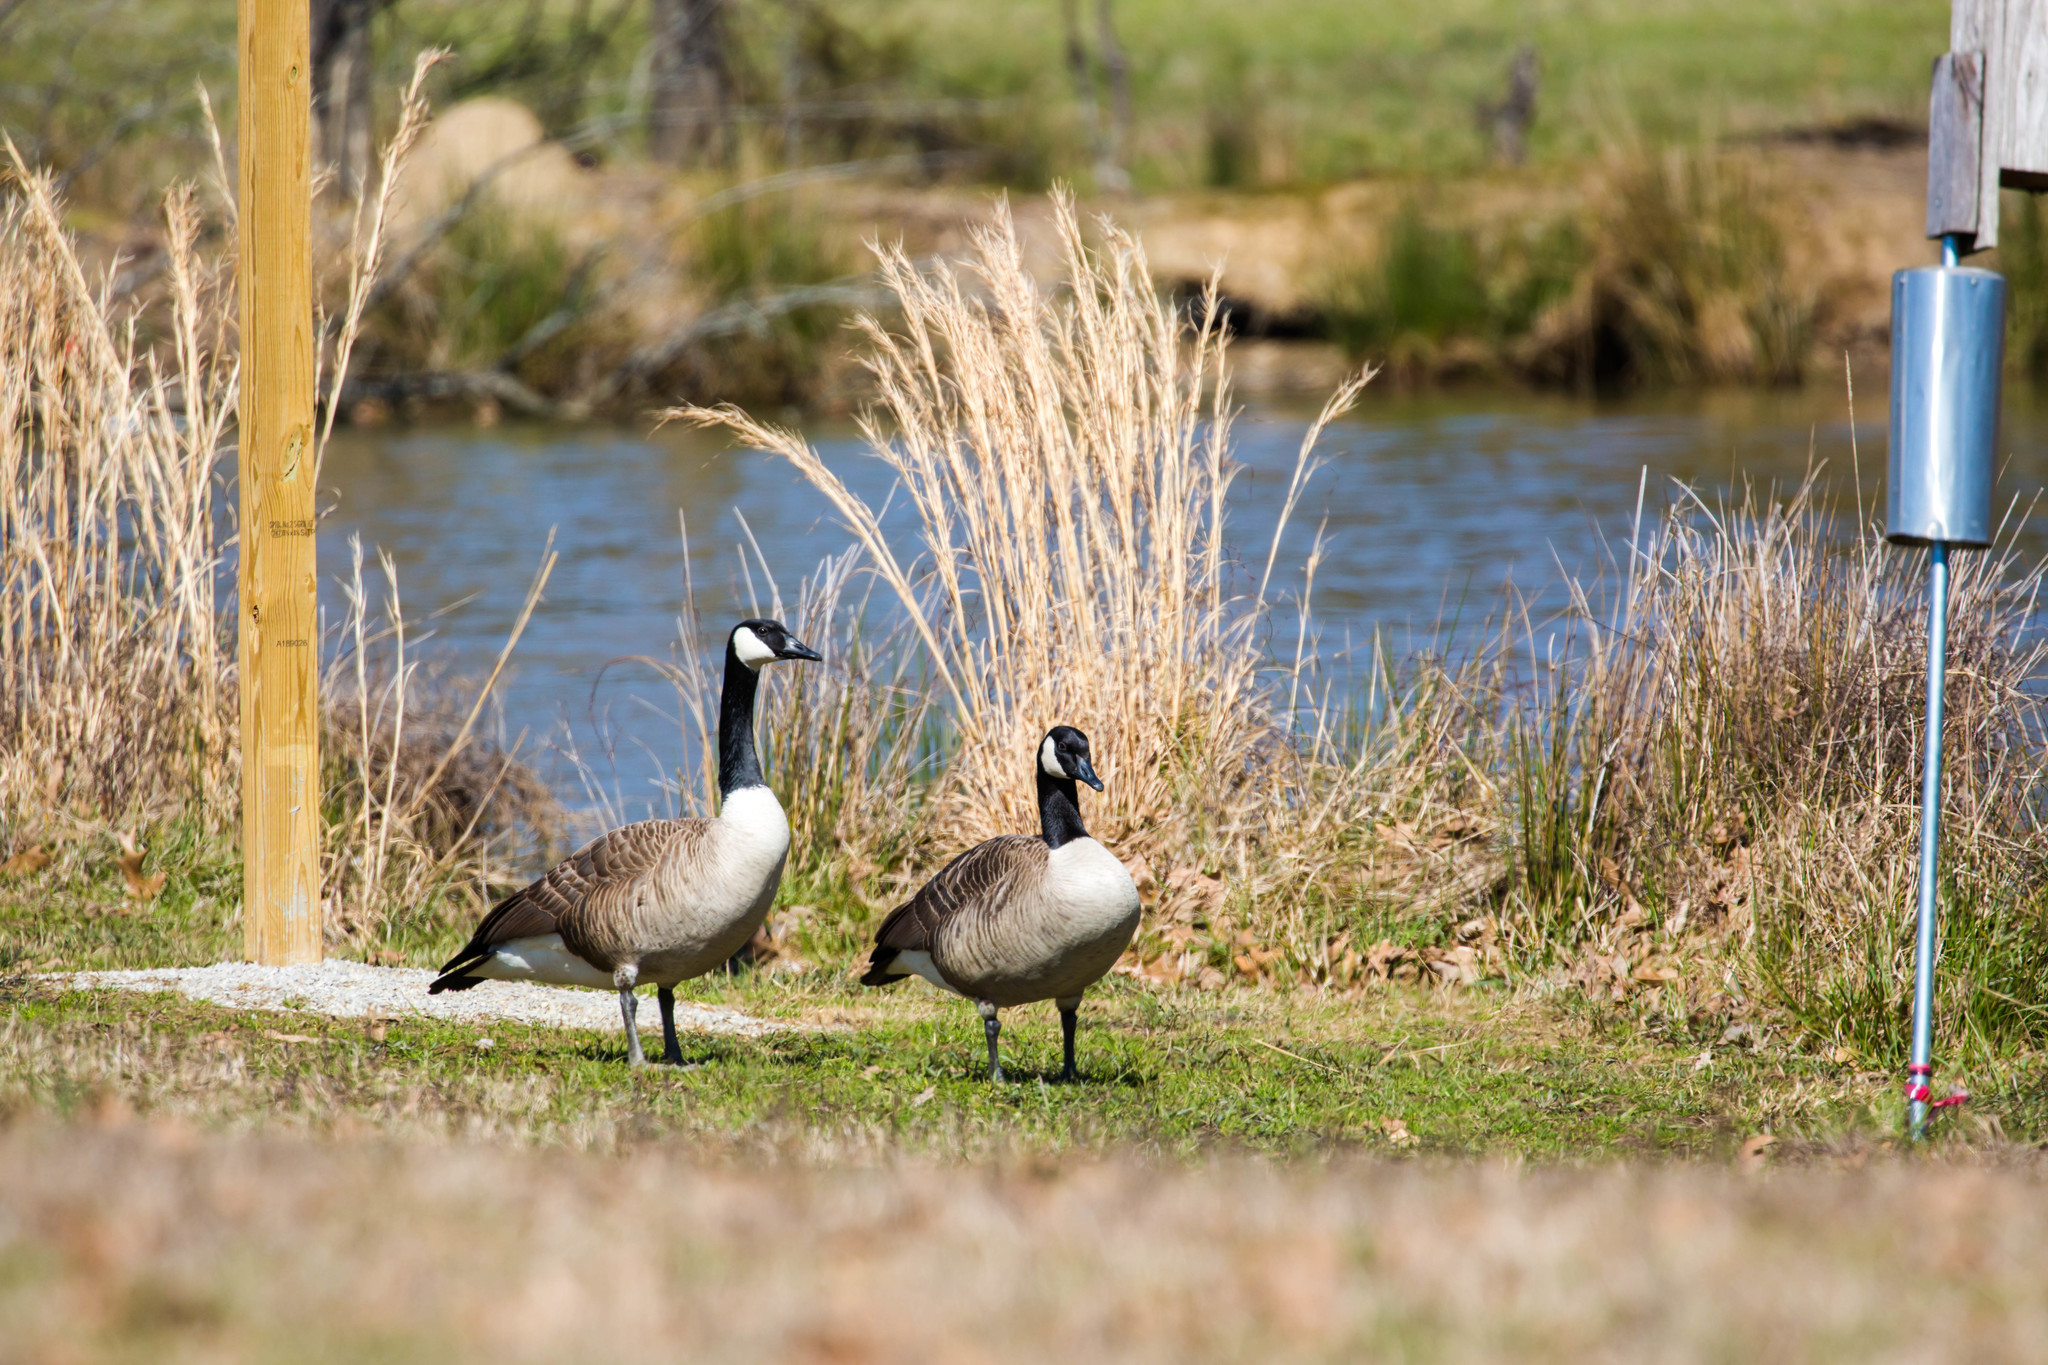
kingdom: Animalia
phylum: Chordata
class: Aves
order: Anseriformes
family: Anatidae
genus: Branta
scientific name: Branta canadensis
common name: Canada goose
